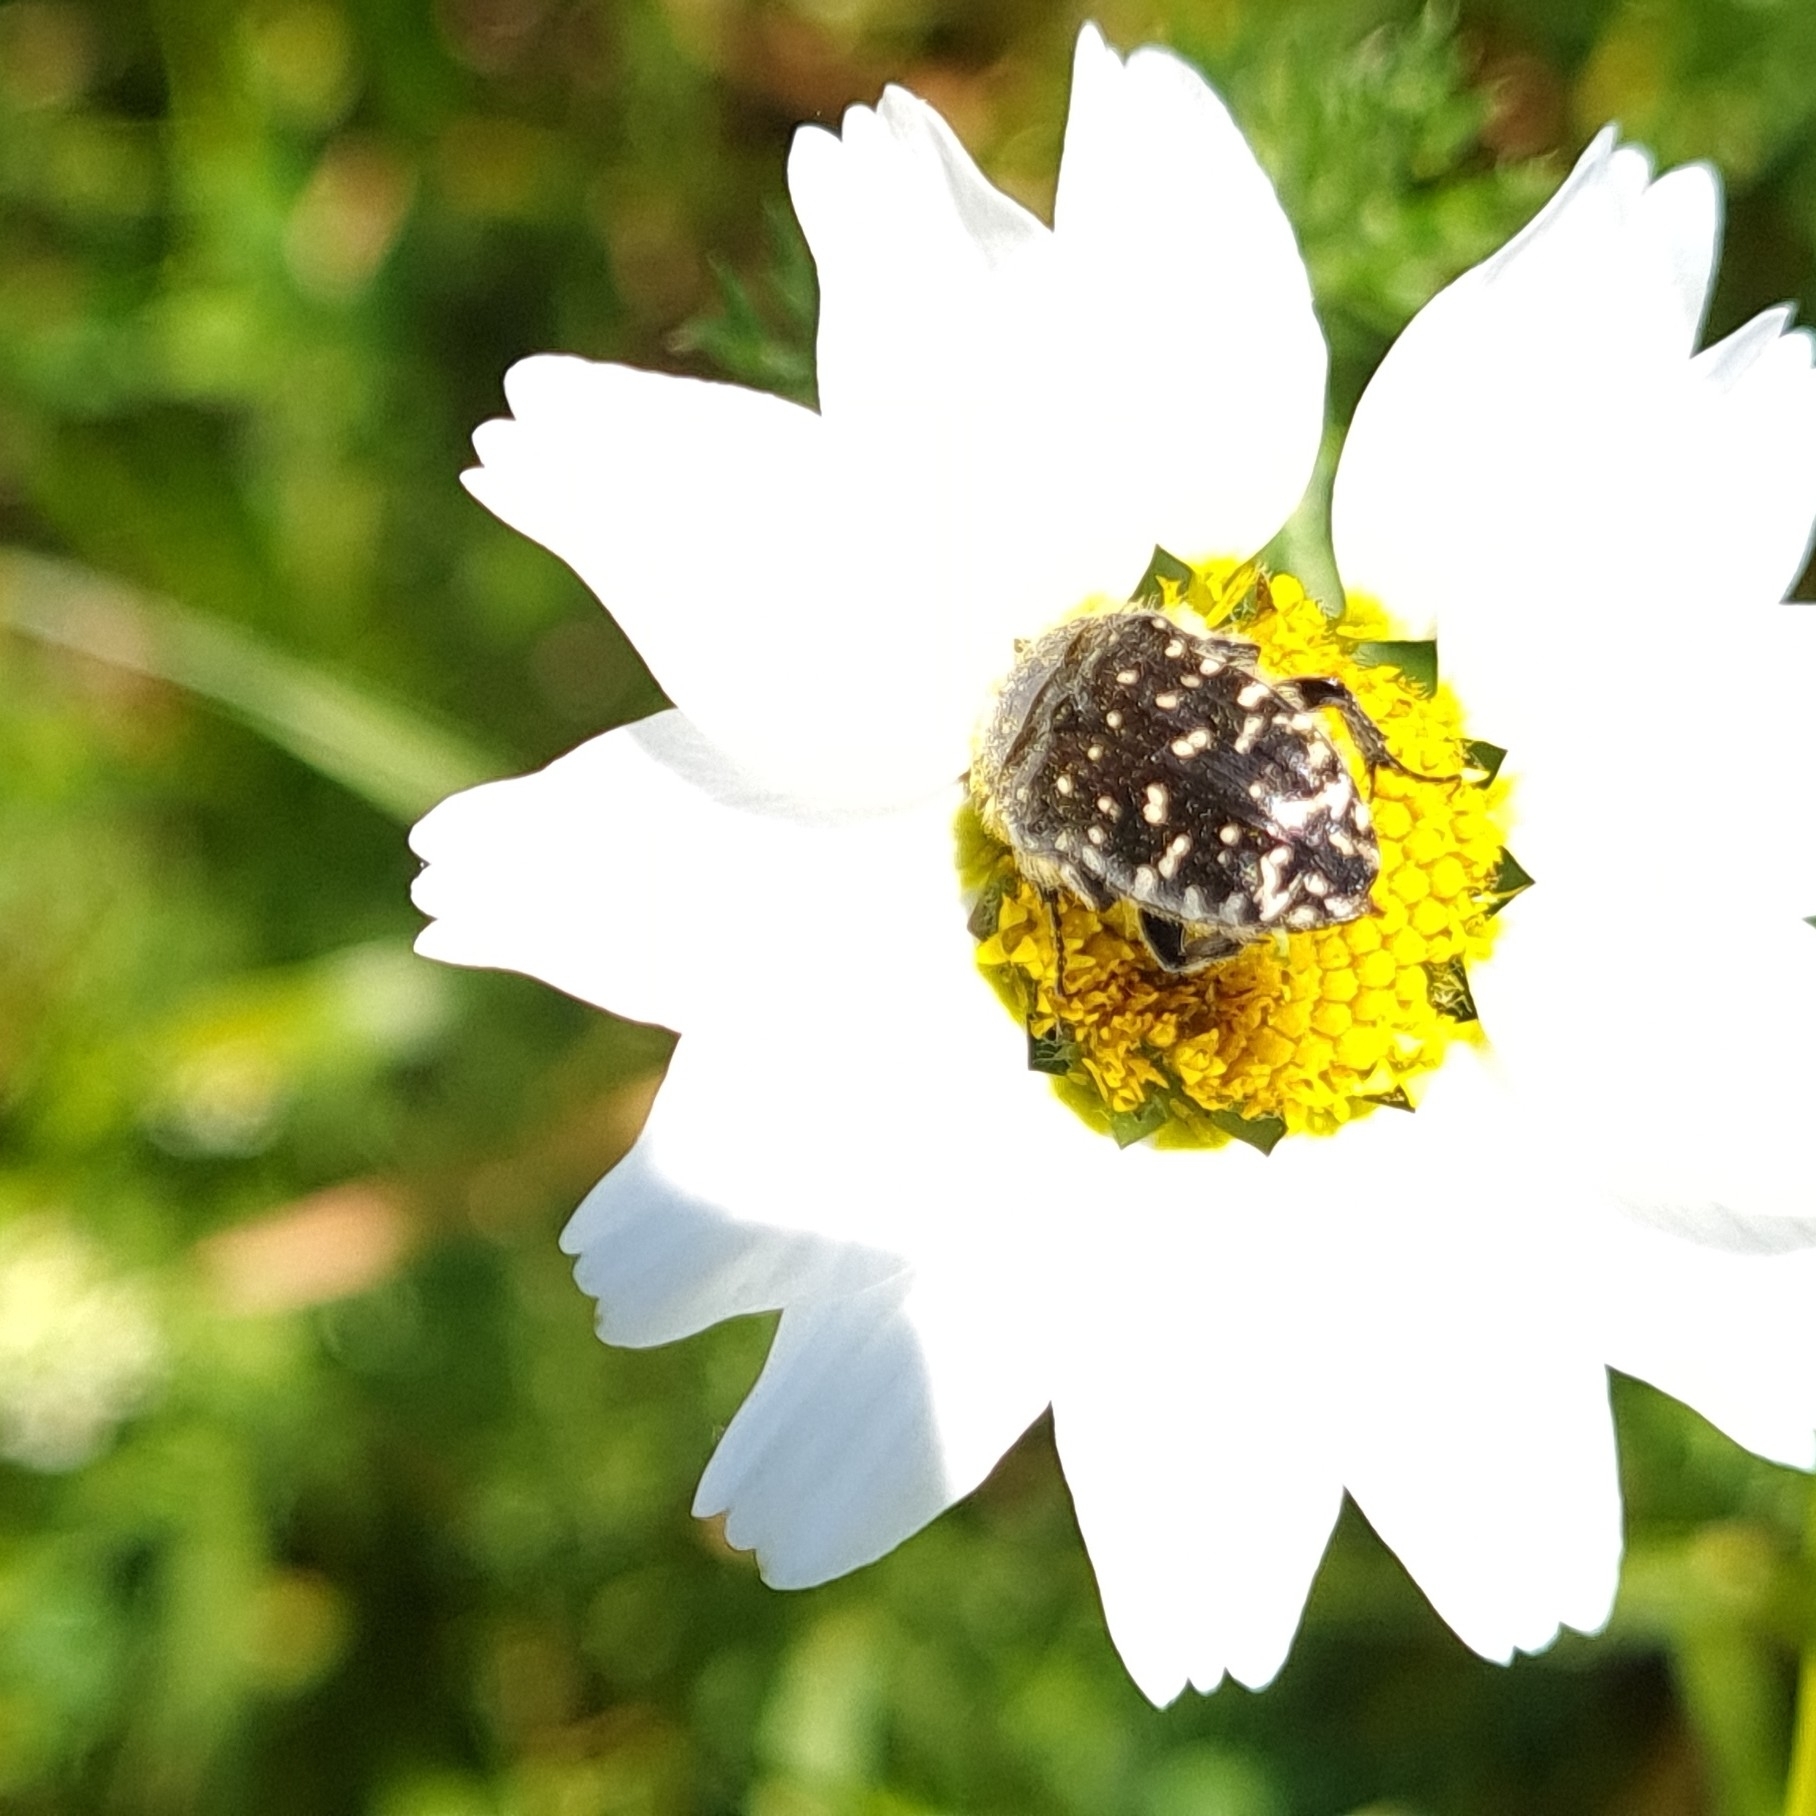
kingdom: Animalia
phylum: Arthropoda
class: Insecta
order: Coleoptera
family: Scarabaeidae
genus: Oxythyrea
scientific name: Oxythyrea funesta
